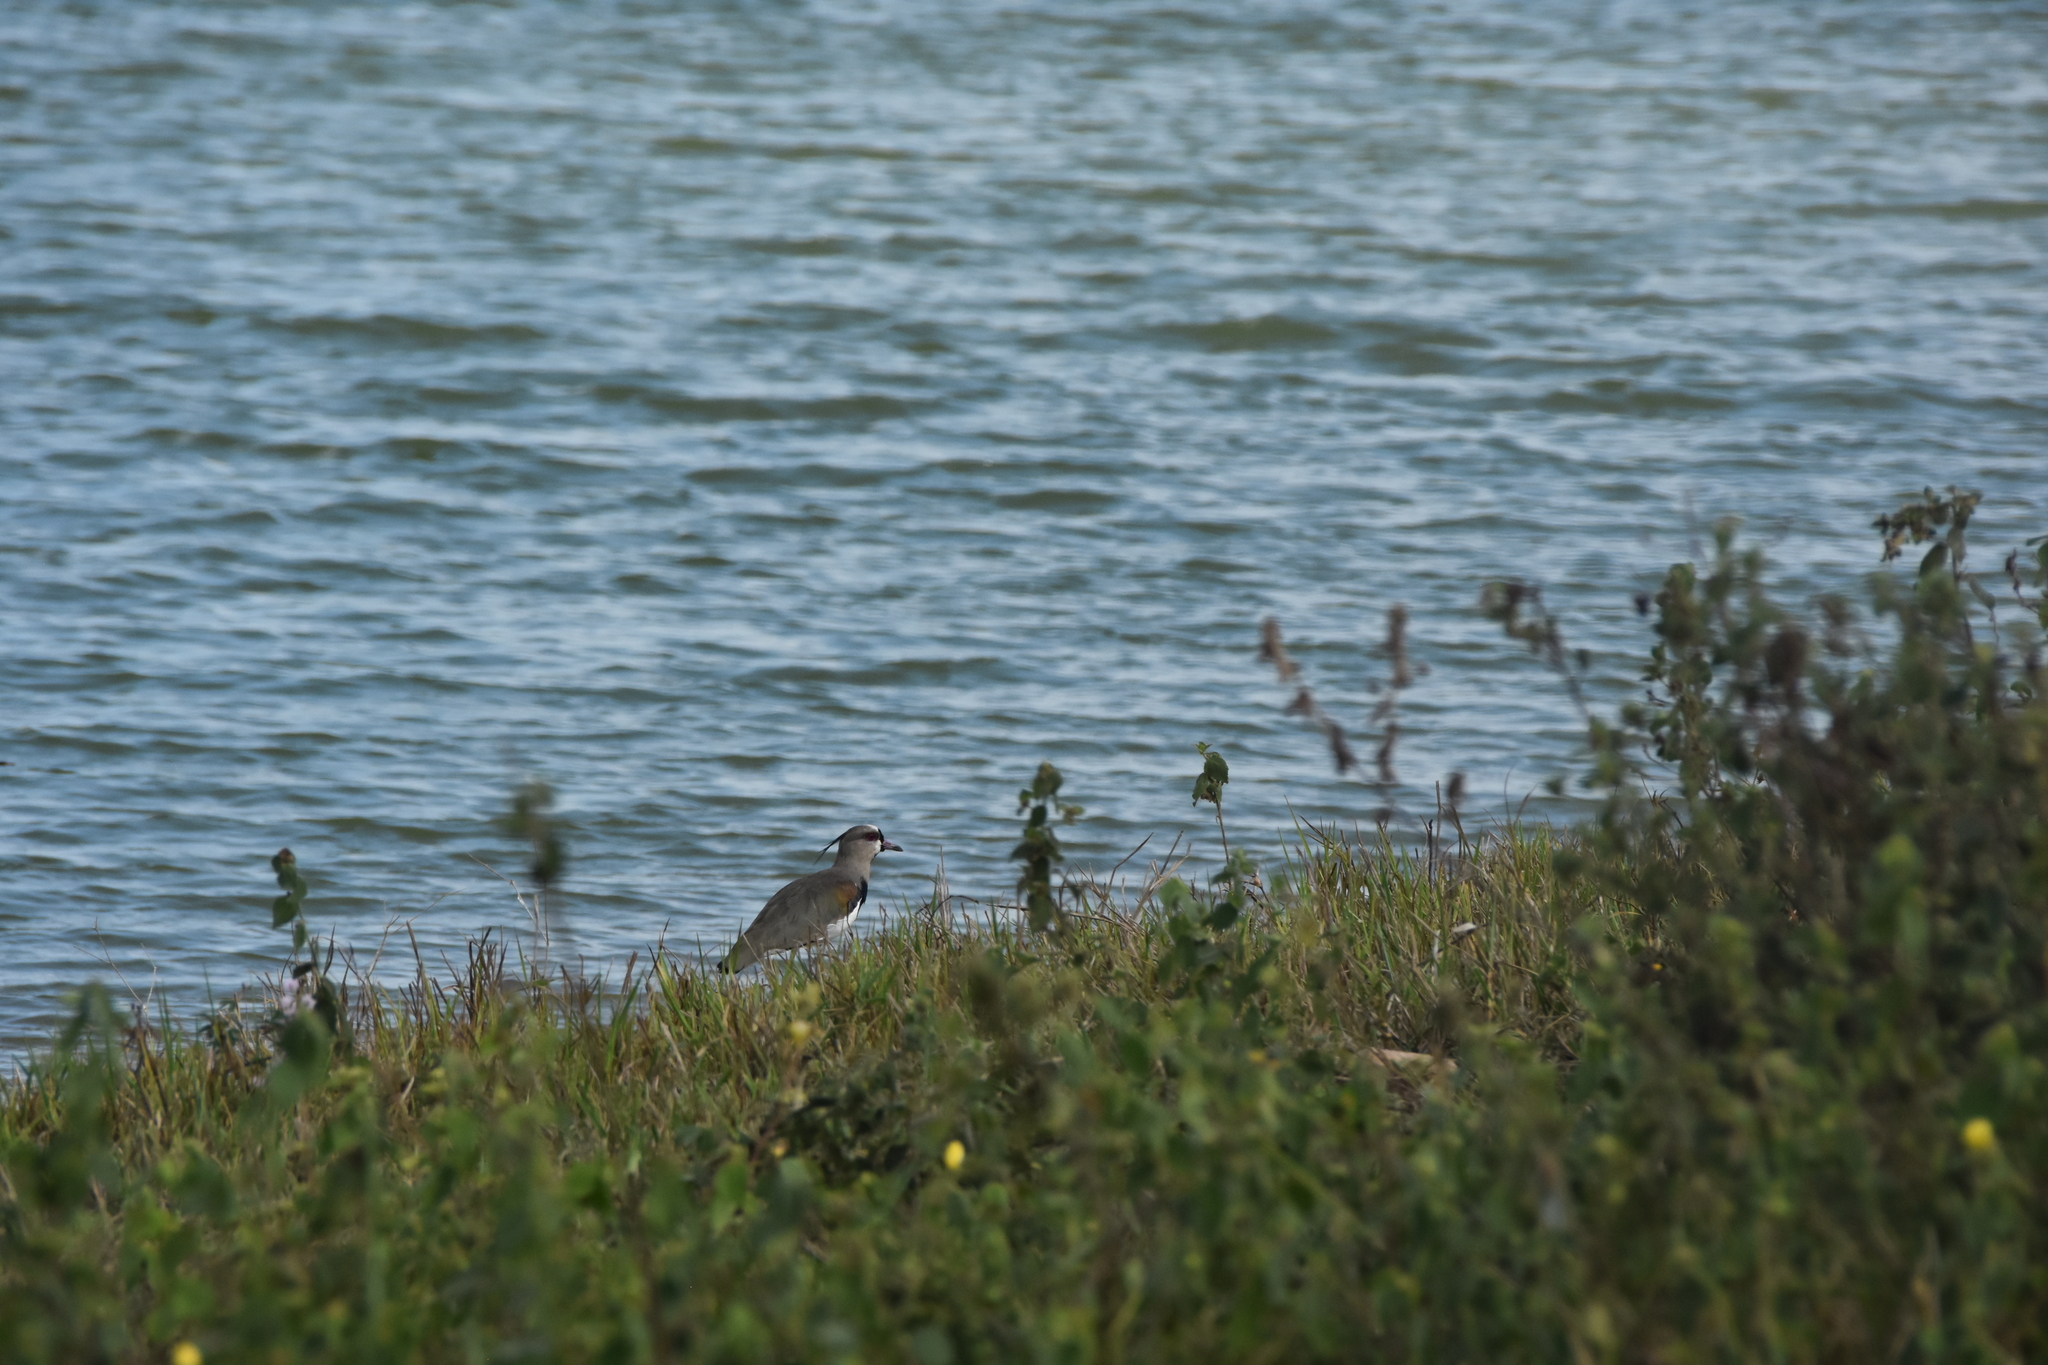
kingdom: Animalia
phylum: Chordata
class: Aves
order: Charadriiformes
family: Charadriidae
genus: Vanellus
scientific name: Vanellus chilensis
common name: Southern lapwing
